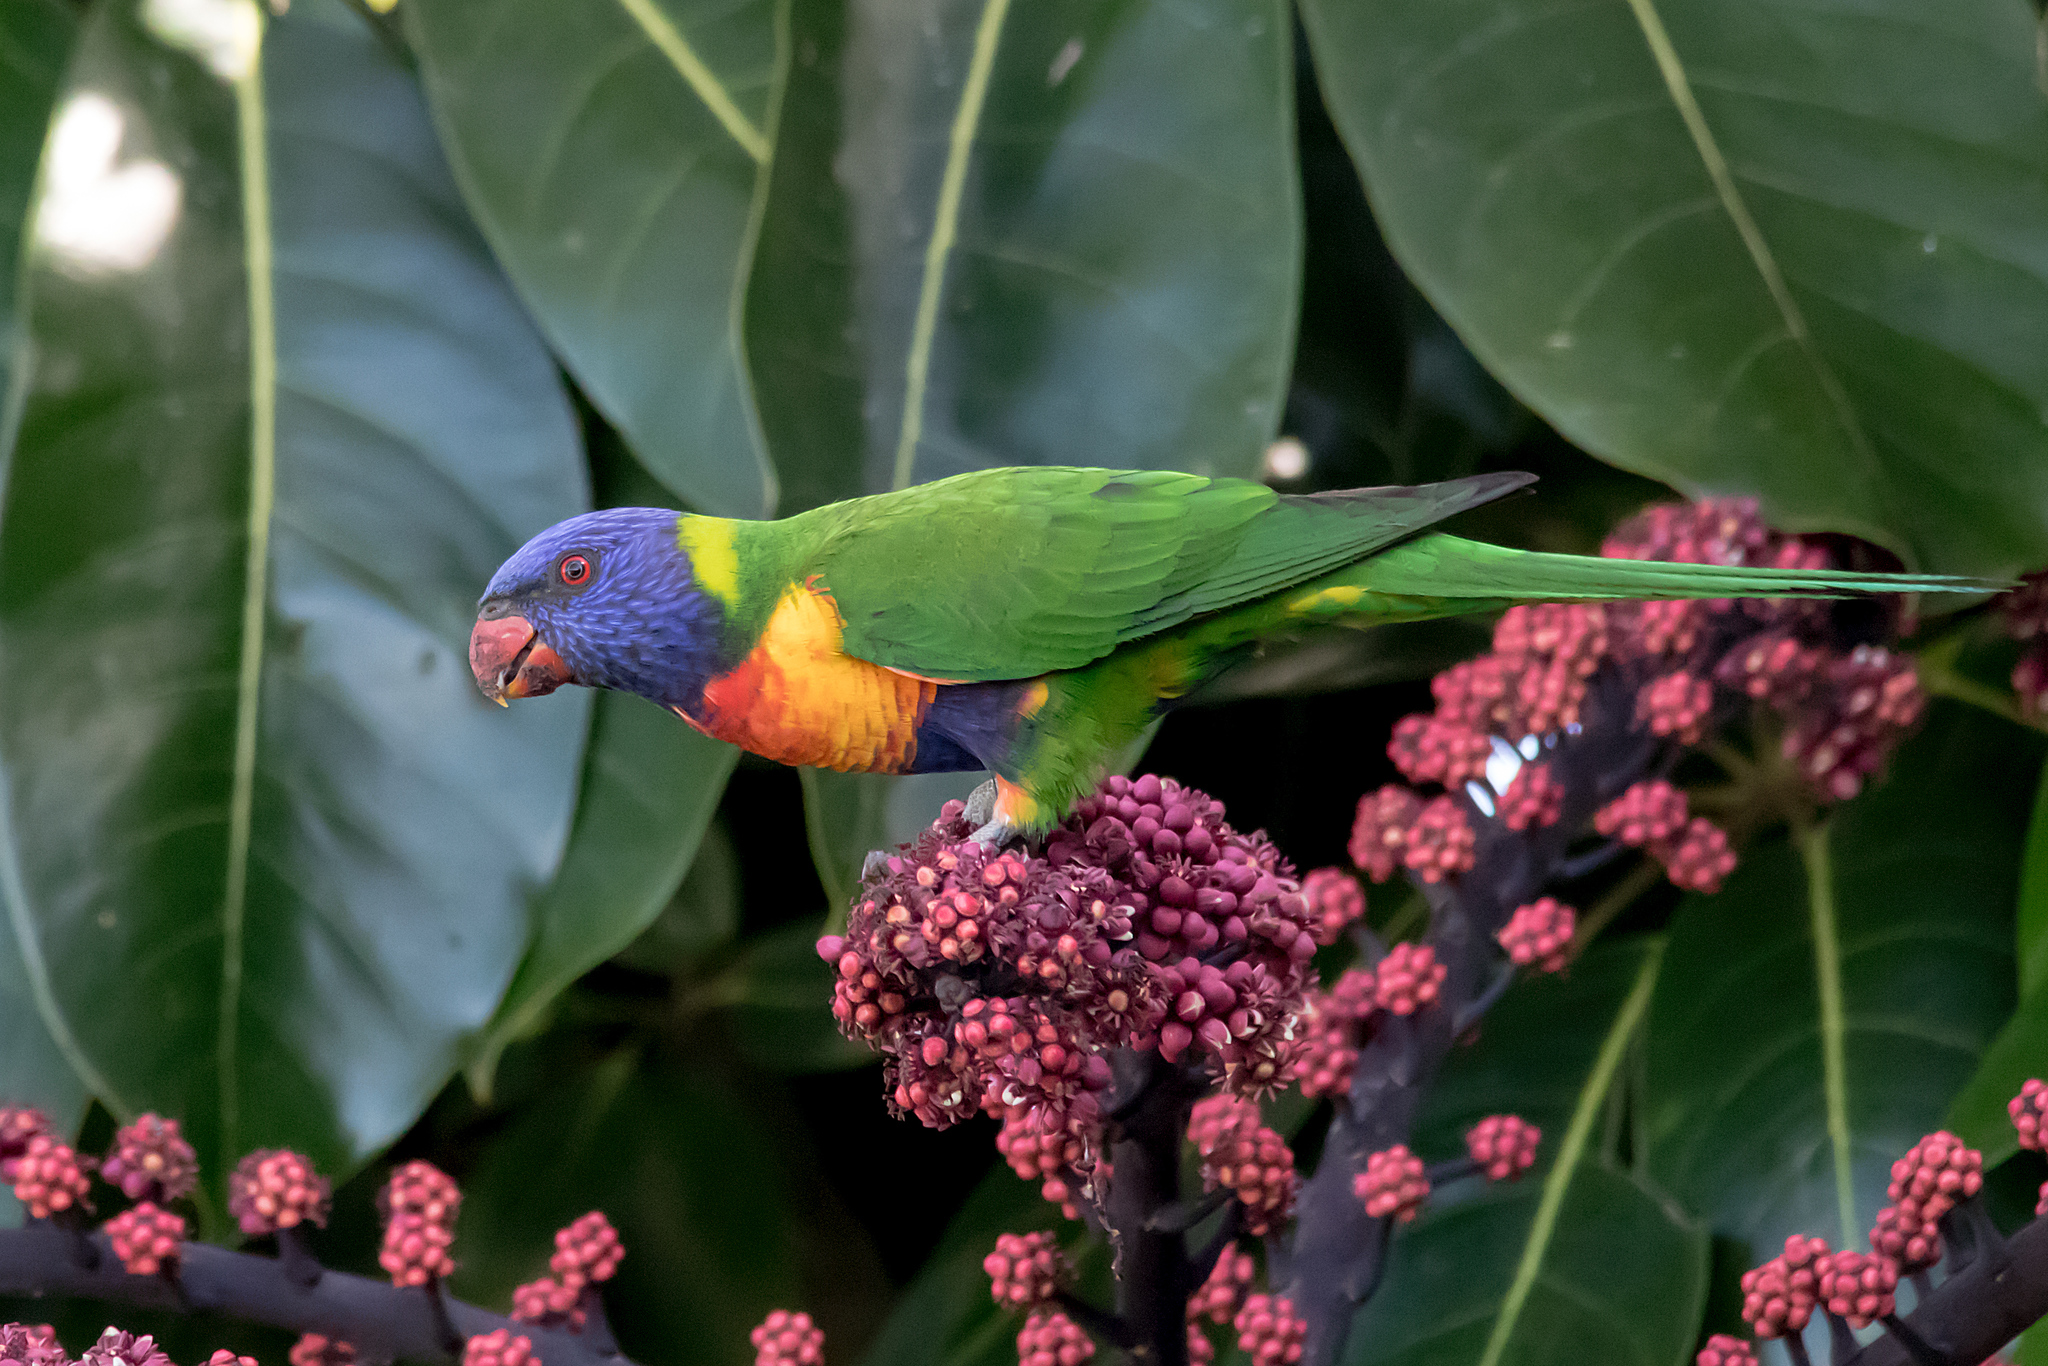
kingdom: Animalia
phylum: Chordata
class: Aves
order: Psittaciformes
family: Psittacidae
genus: Trichoglossus
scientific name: Trichoglossus haematodus
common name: Coconut lorikeet
